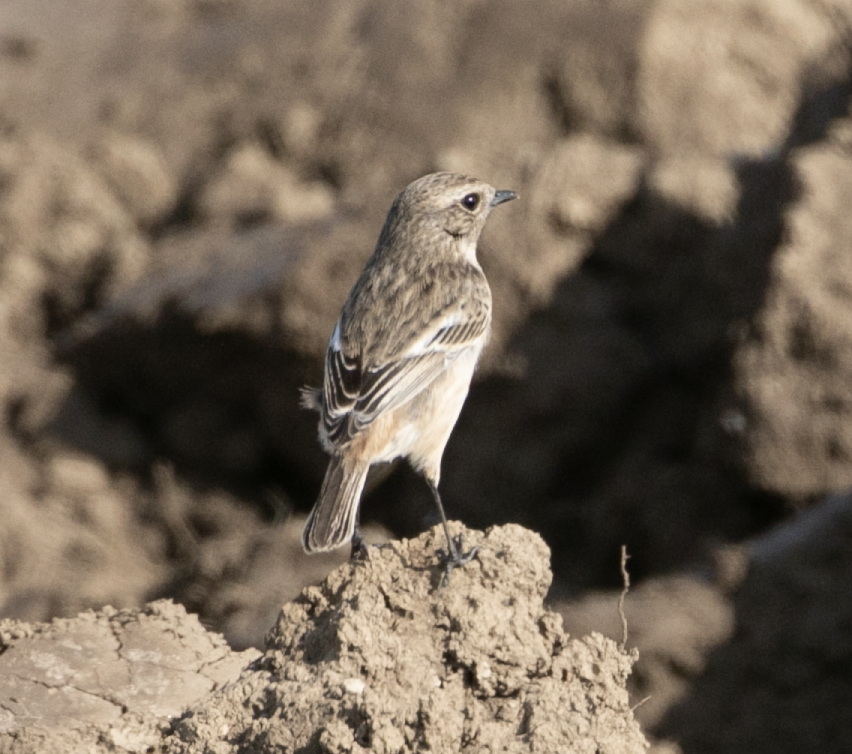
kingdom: Animalia
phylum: Chordata
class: Aves
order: Passeriformes
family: Muscicapidae
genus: Saxicola
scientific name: Saxicola rubicola
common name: European stonechat
